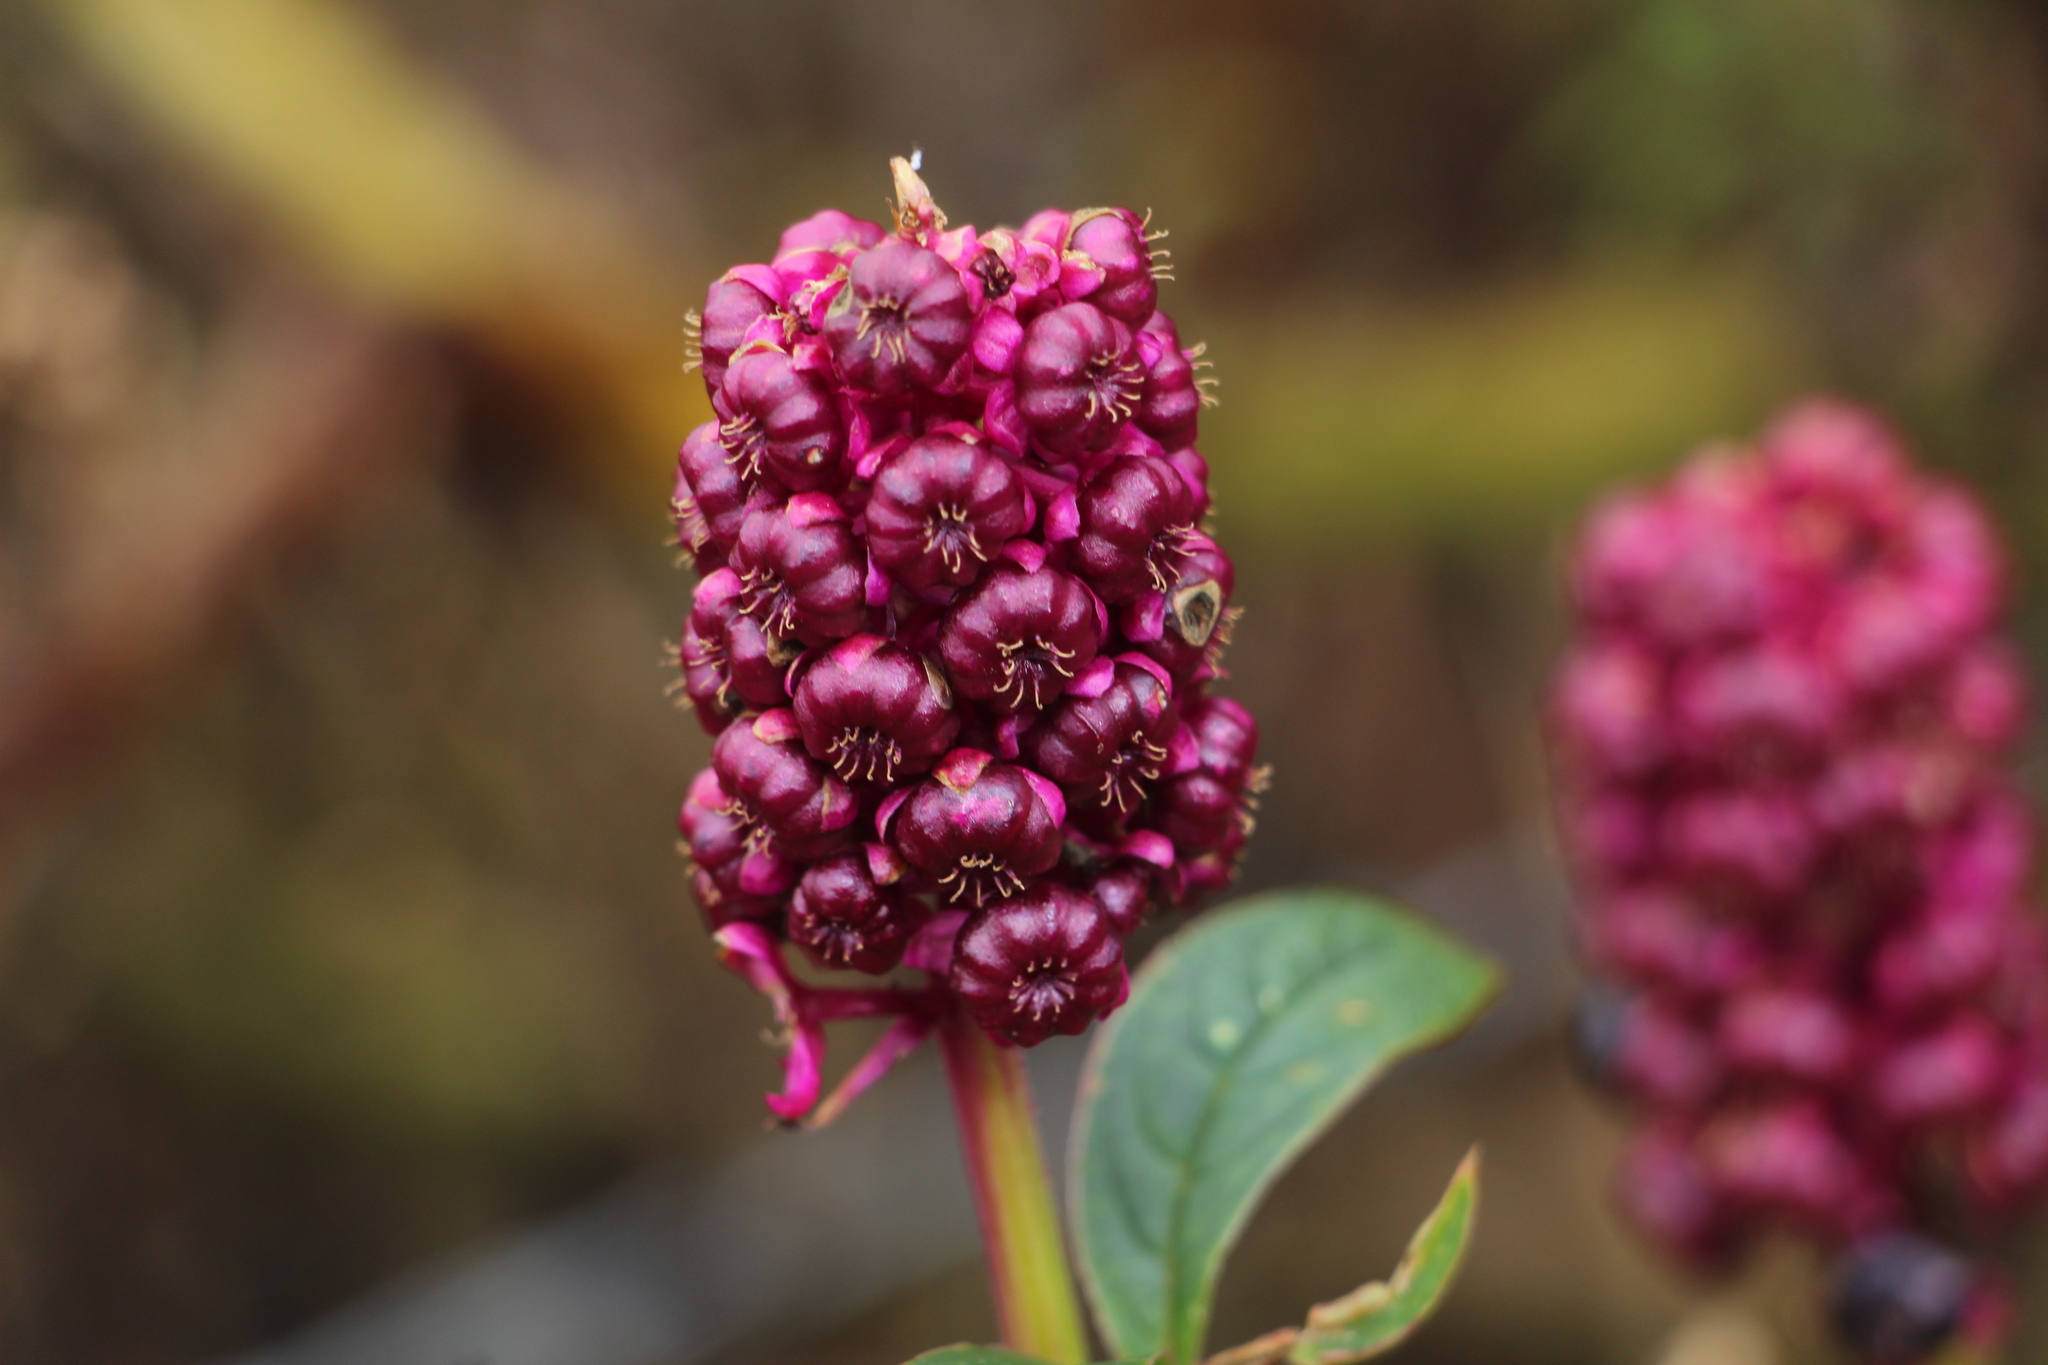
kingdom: Plantae
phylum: Tracheophyta
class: Magnoliopsida
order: Caryophyllales
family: Phytolaccaceae
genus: Phytolacca
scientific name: Phytolacca bogotensis
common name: Southern pokeweed
